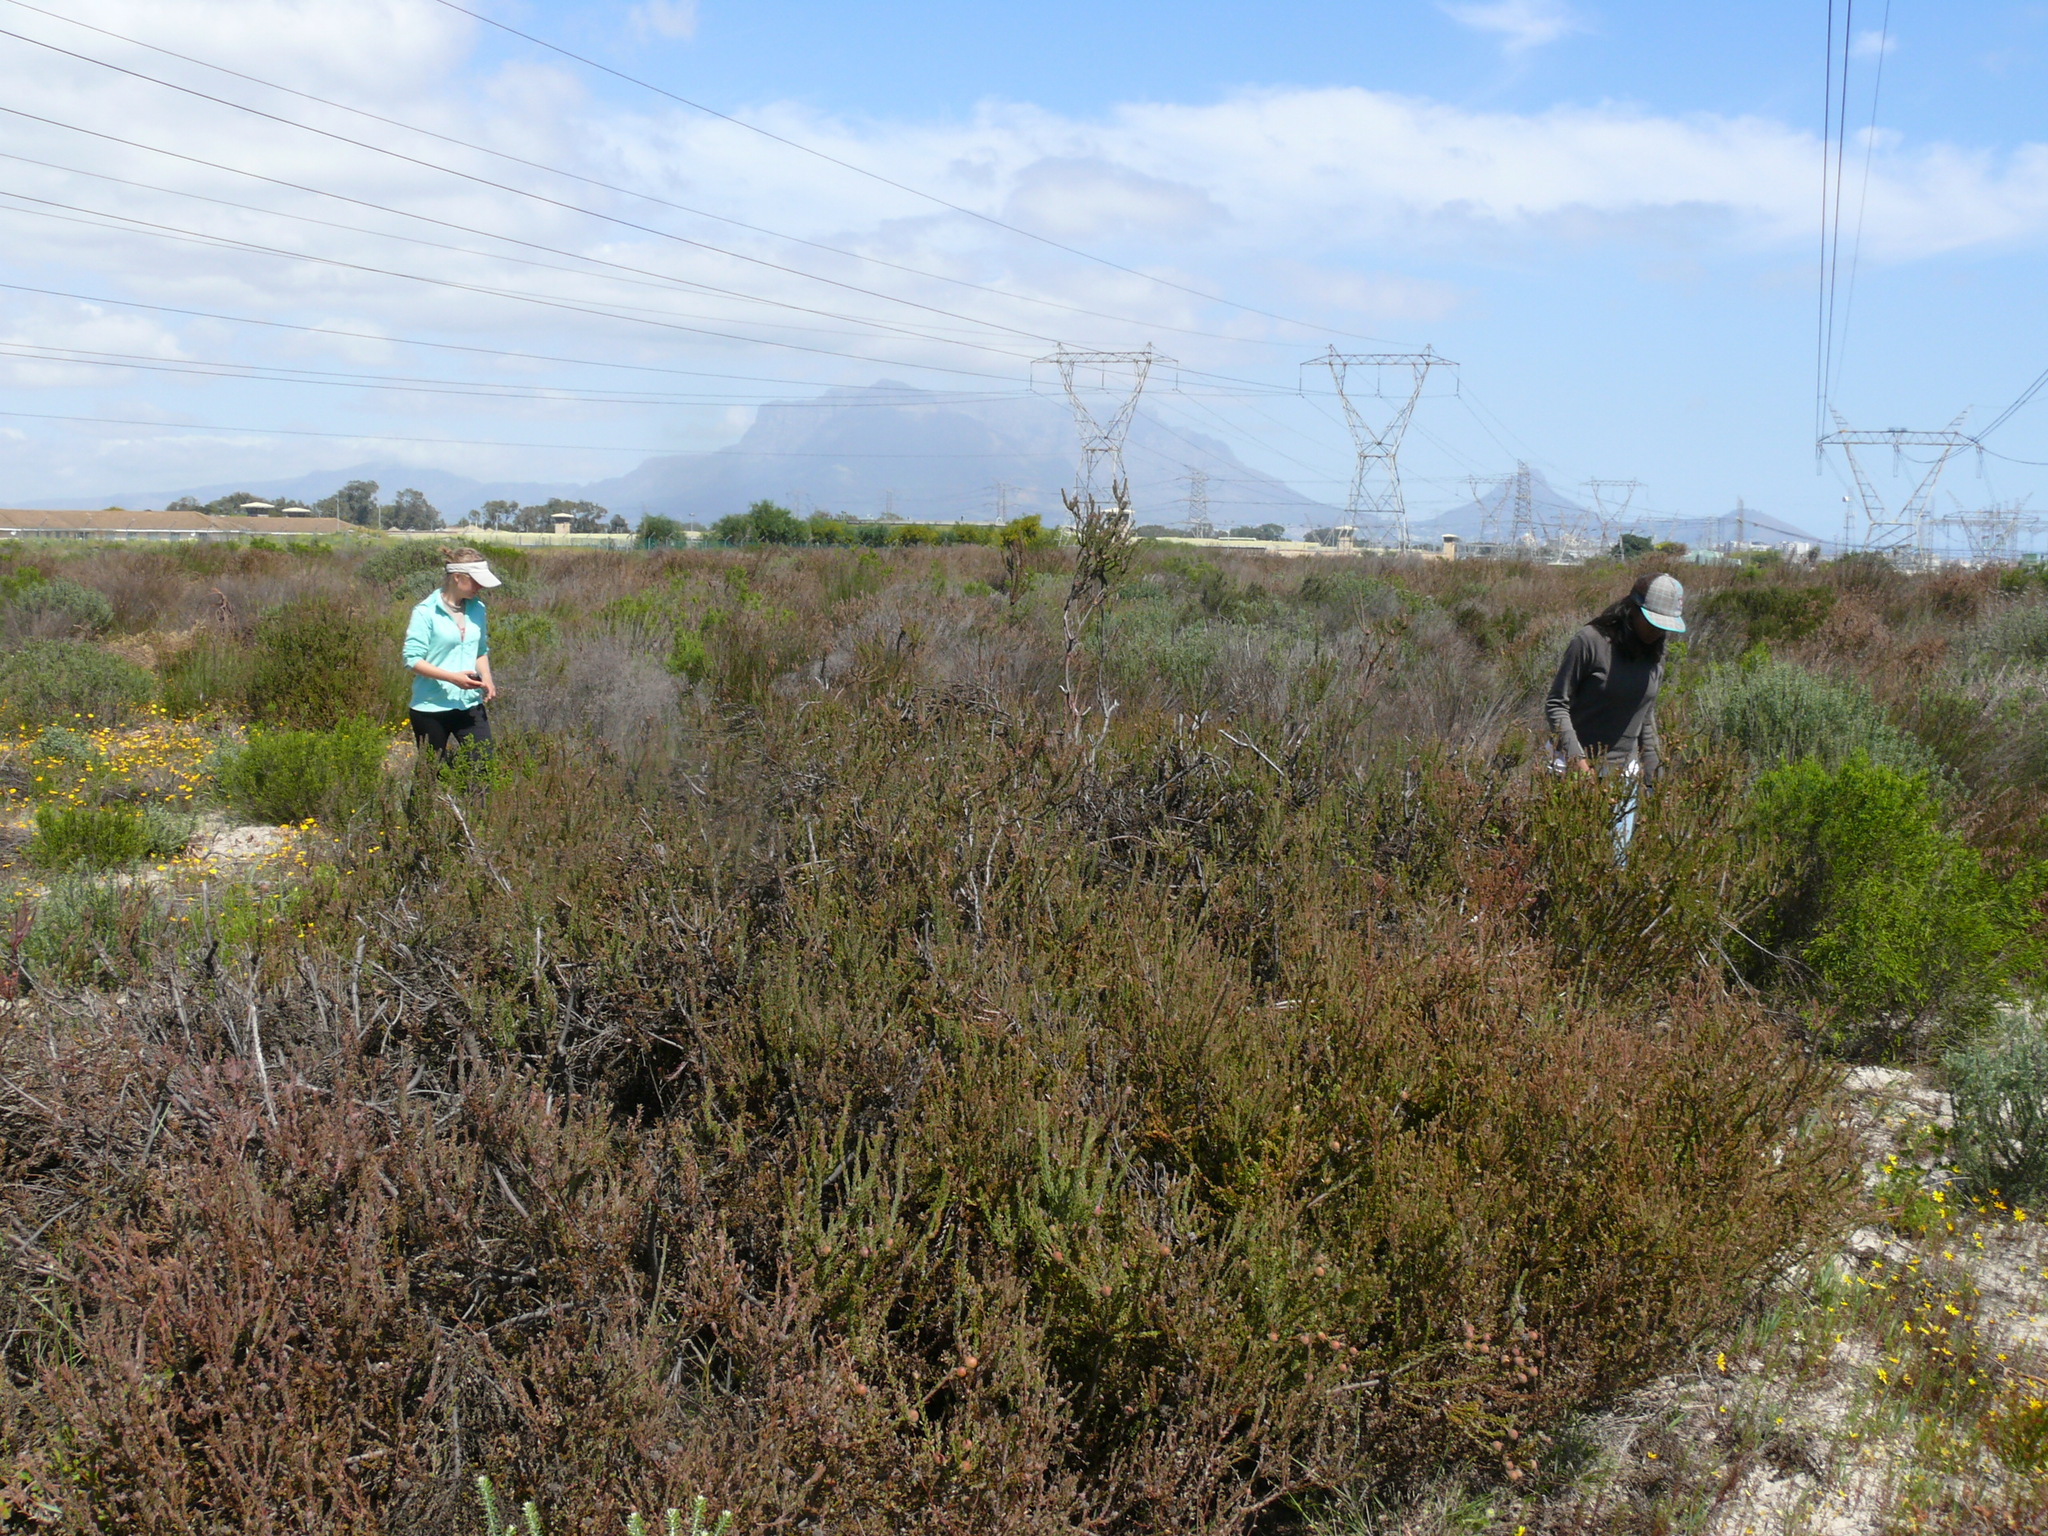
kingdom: Plantae
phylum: Tracheophyta
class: Magnoliopsida
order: Proteales
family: Proteaceae
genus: Leucadendron
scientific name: Leucadendron levisanus
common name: Cape flats conebush
